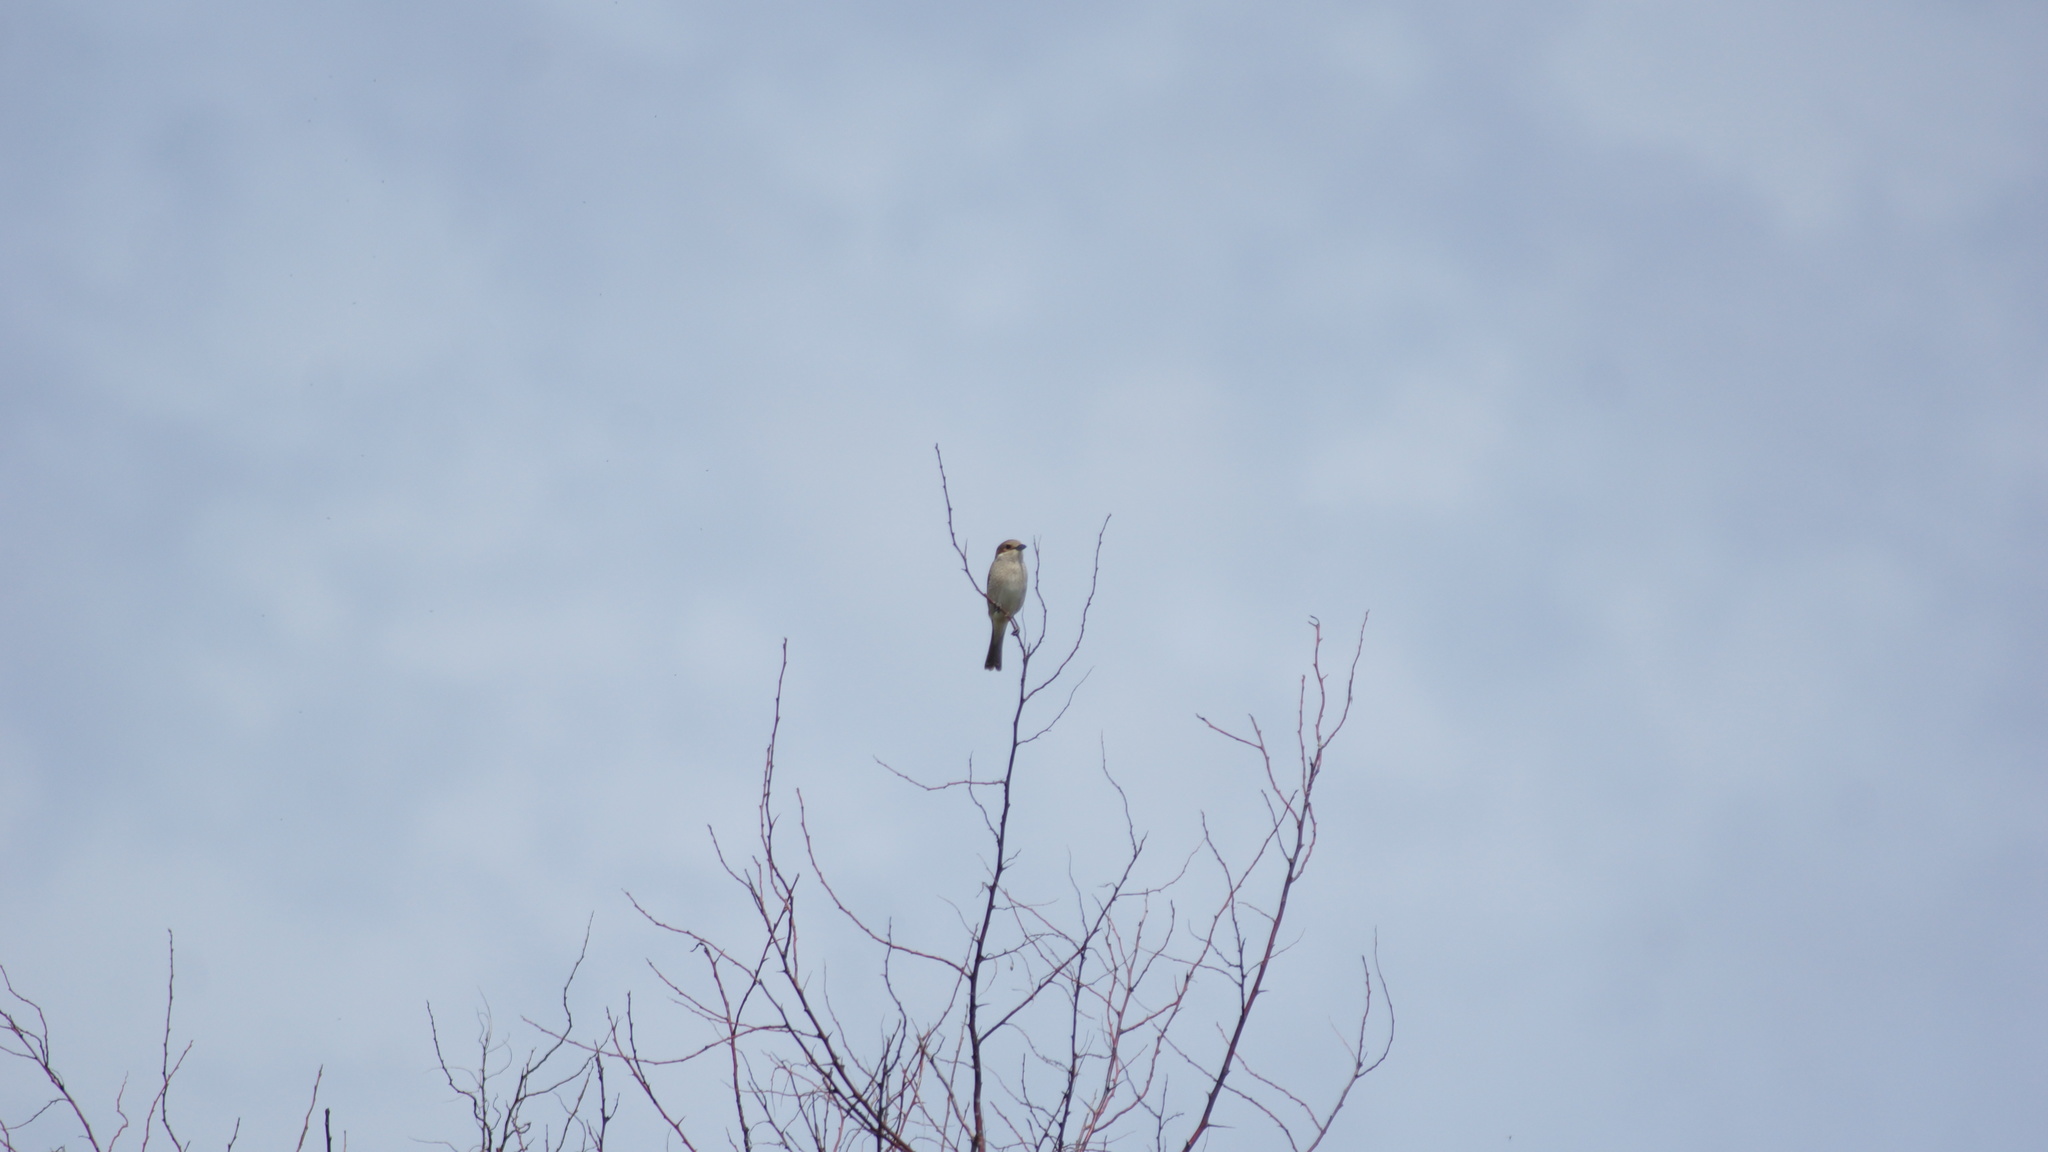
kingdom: Animalia
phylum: Chordata
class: Aves
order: Passeriformes
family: Laniidae
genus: Lanius
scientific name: Lanius collurio
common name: Red-backed shrike
